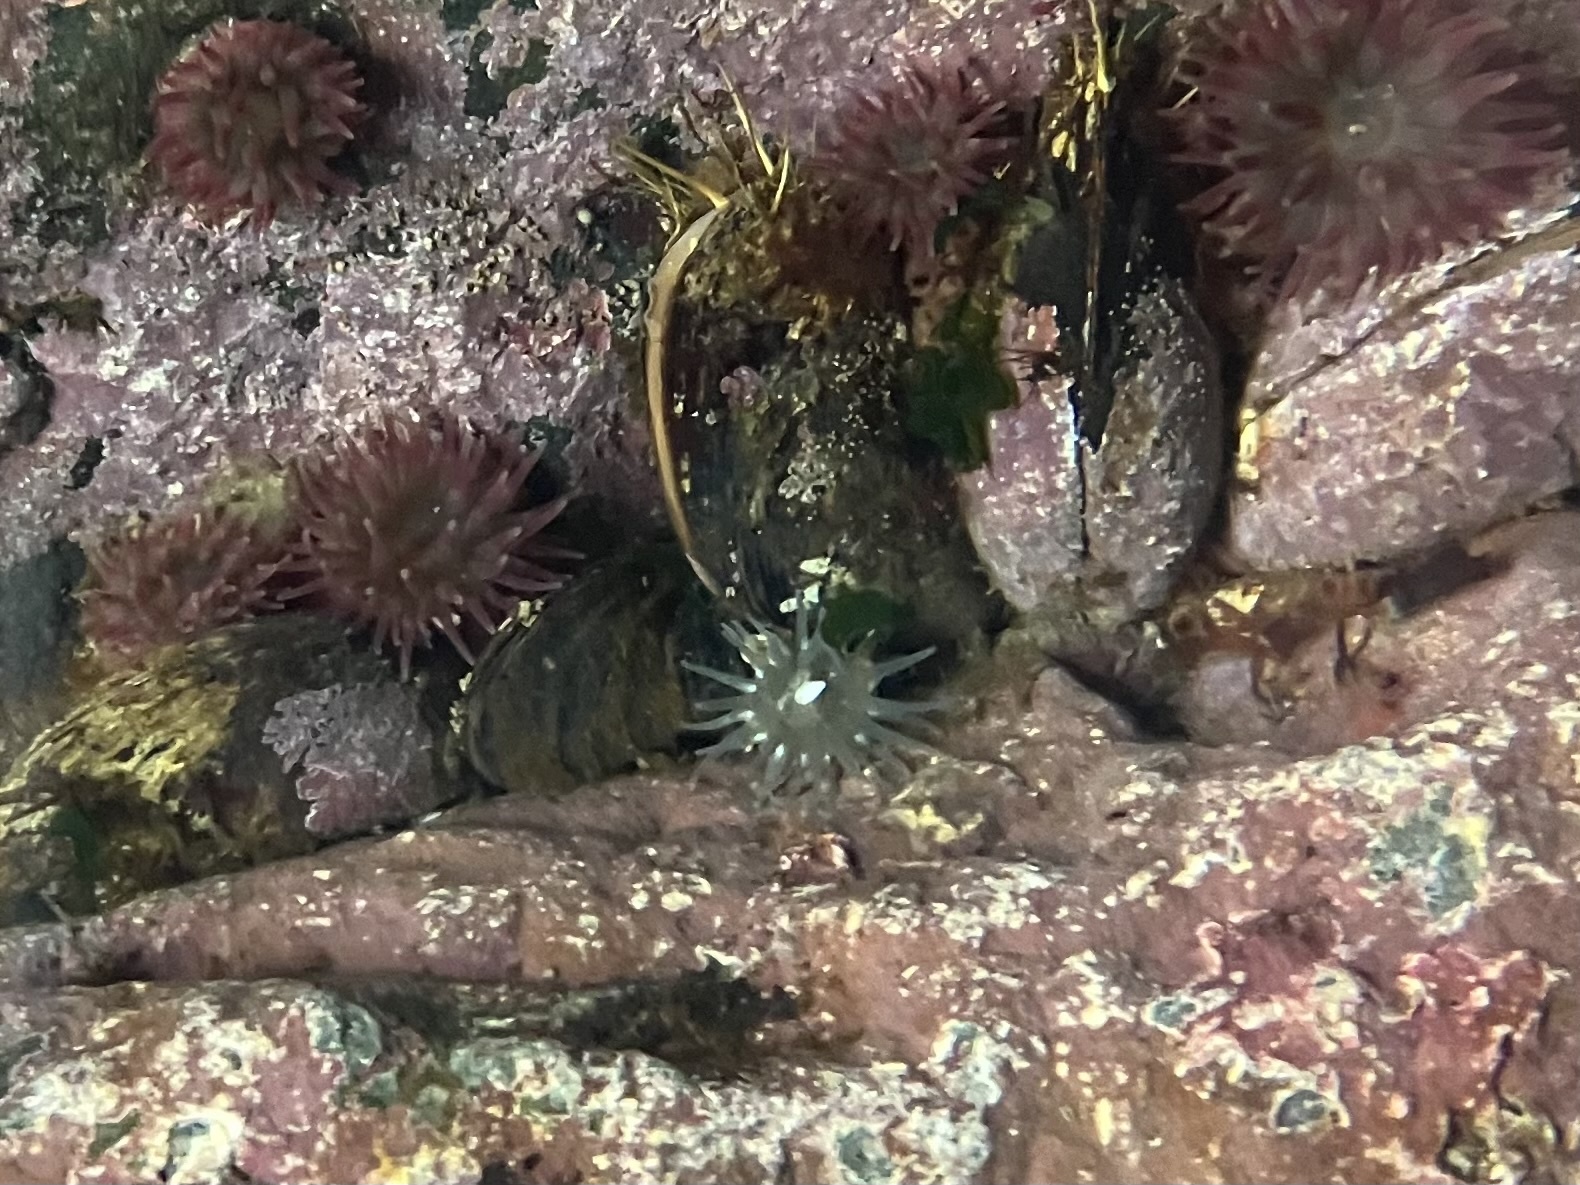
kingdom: Animalia
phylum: Cnidaria
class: Anthozoa
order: Actiniaria
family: Actiniidae
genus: Aulactinia
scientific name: Aulactinia stella
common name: Silver-spotted sea anemone
